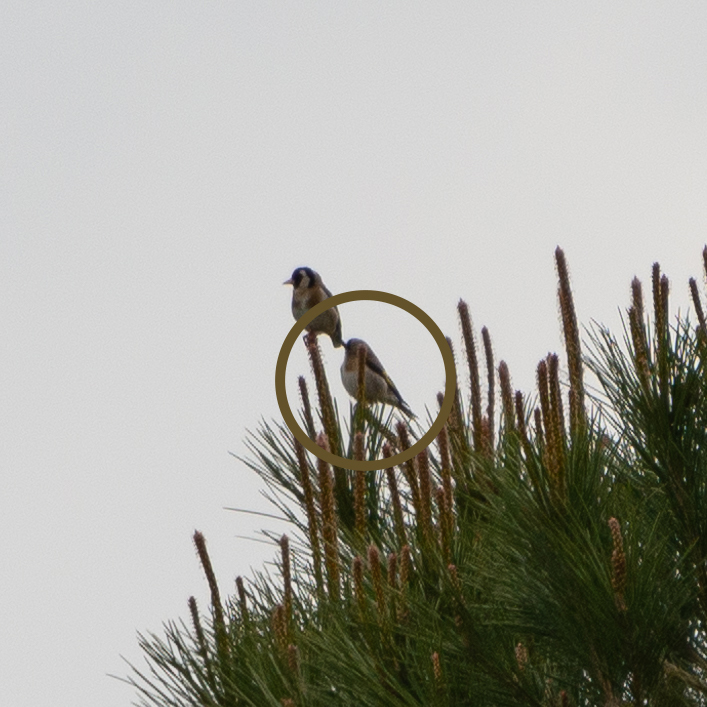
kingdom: Animalia
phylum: Chordata
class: Aves
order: Passeriformes
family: Fringillidae
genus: Carduelis
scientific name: Carduelis carduelis
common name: European goldfinch
